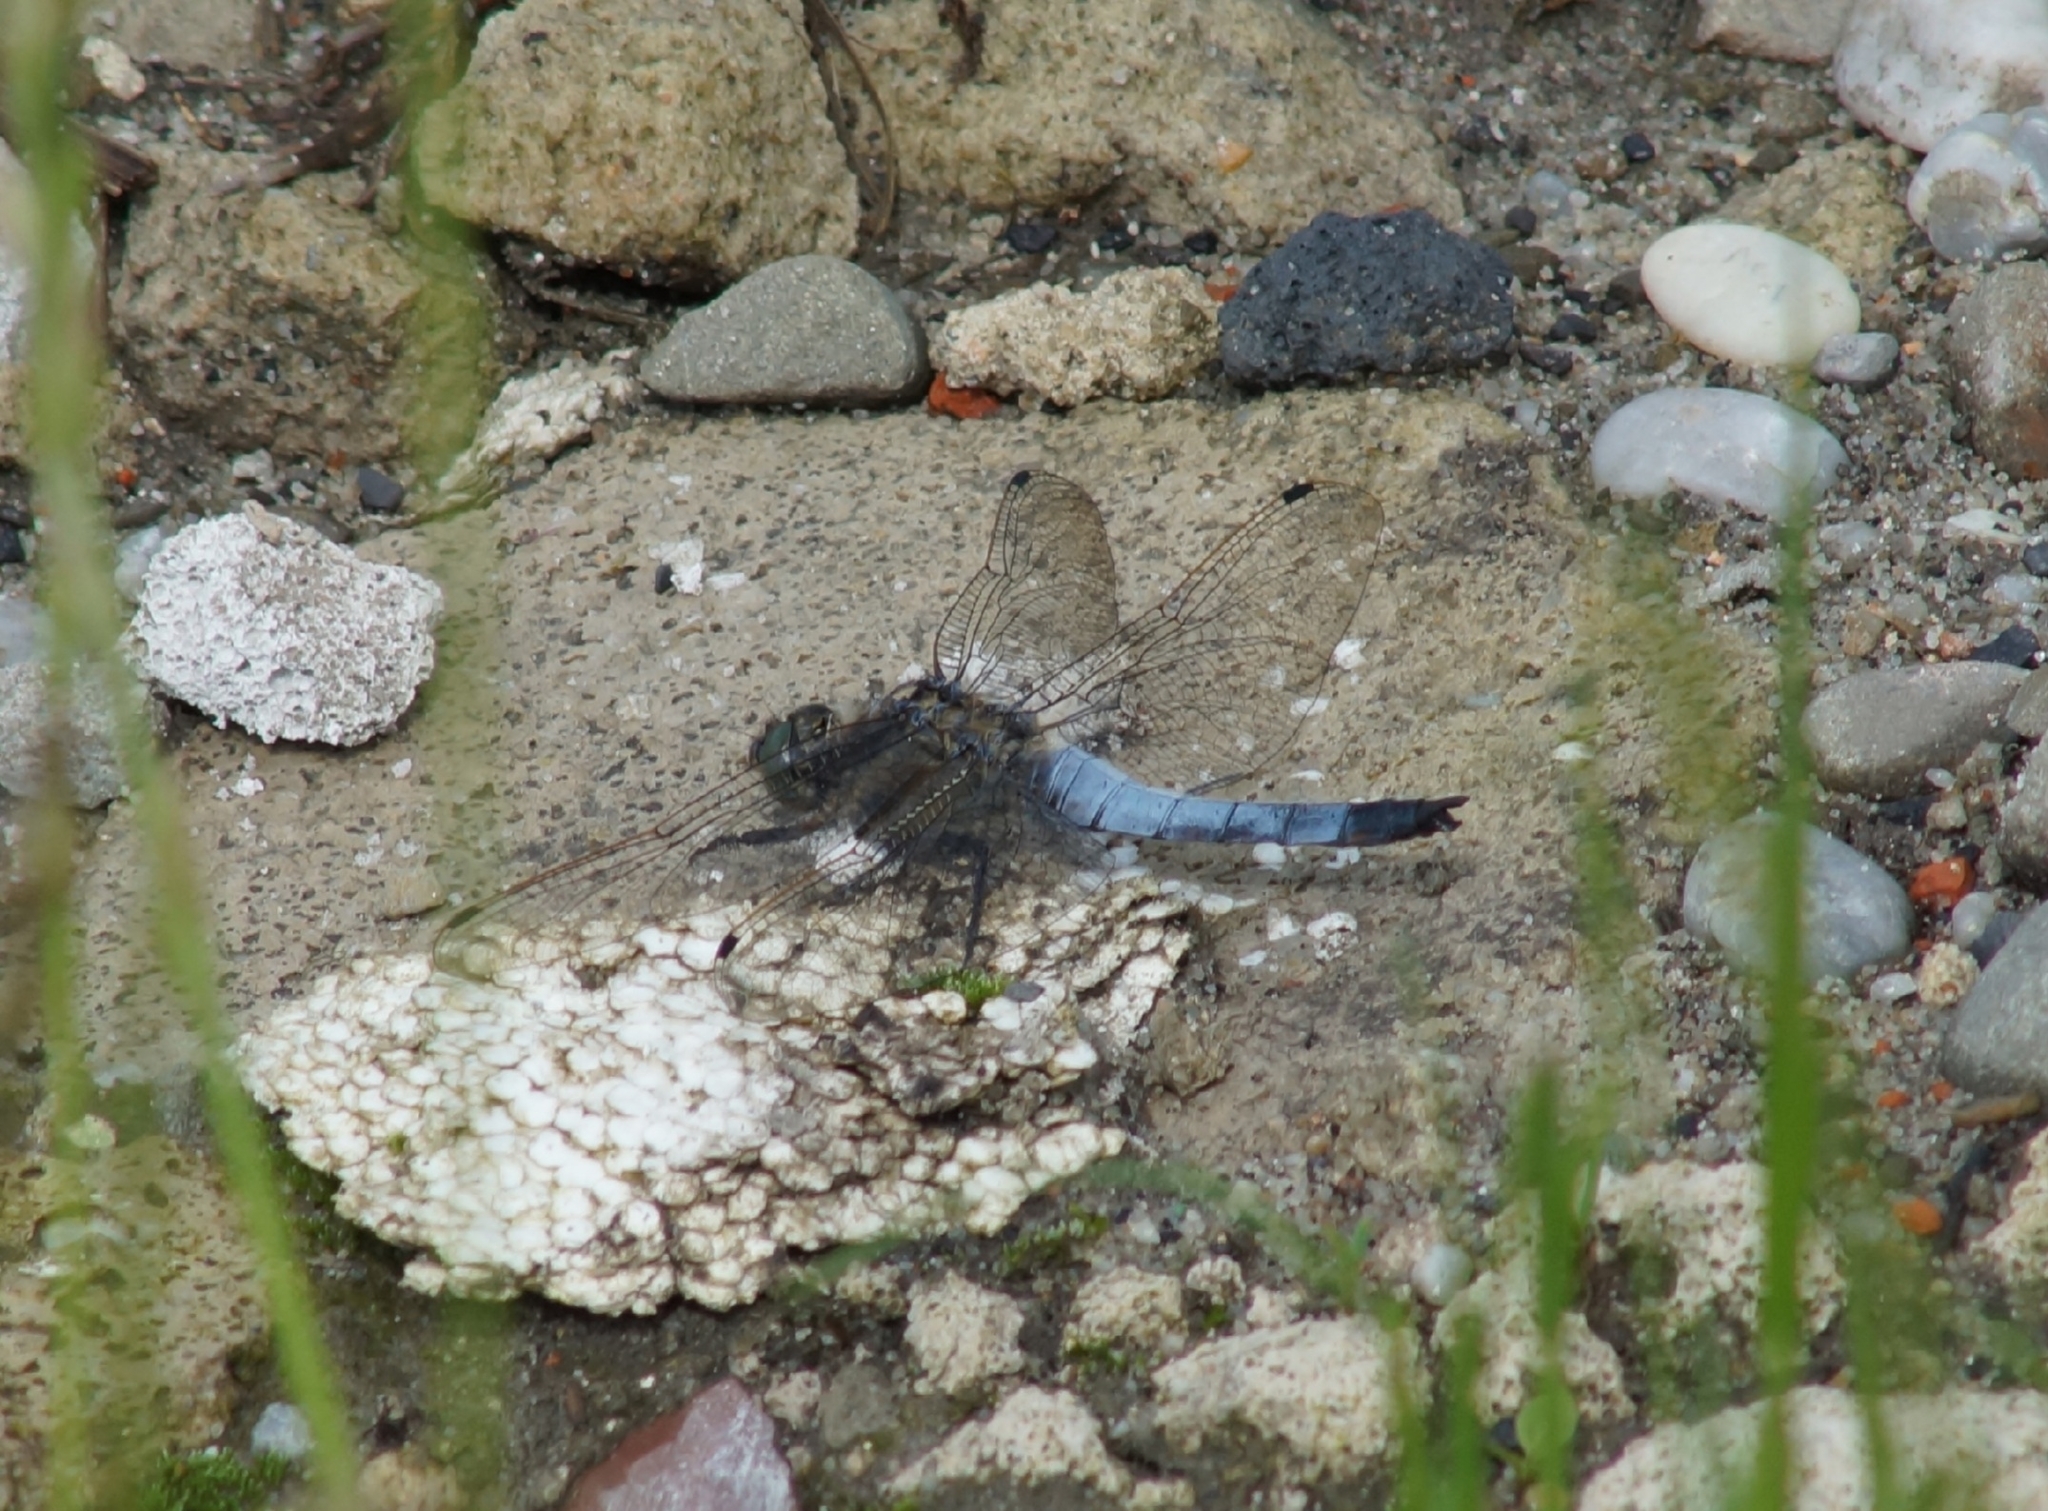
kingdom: Animalia
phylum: Arthropoda
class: Insecta
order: Odonata
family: Libellulidae
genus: Orthetrum
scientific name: Orthetrum cancellatum
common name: Black-tailed skimmer
